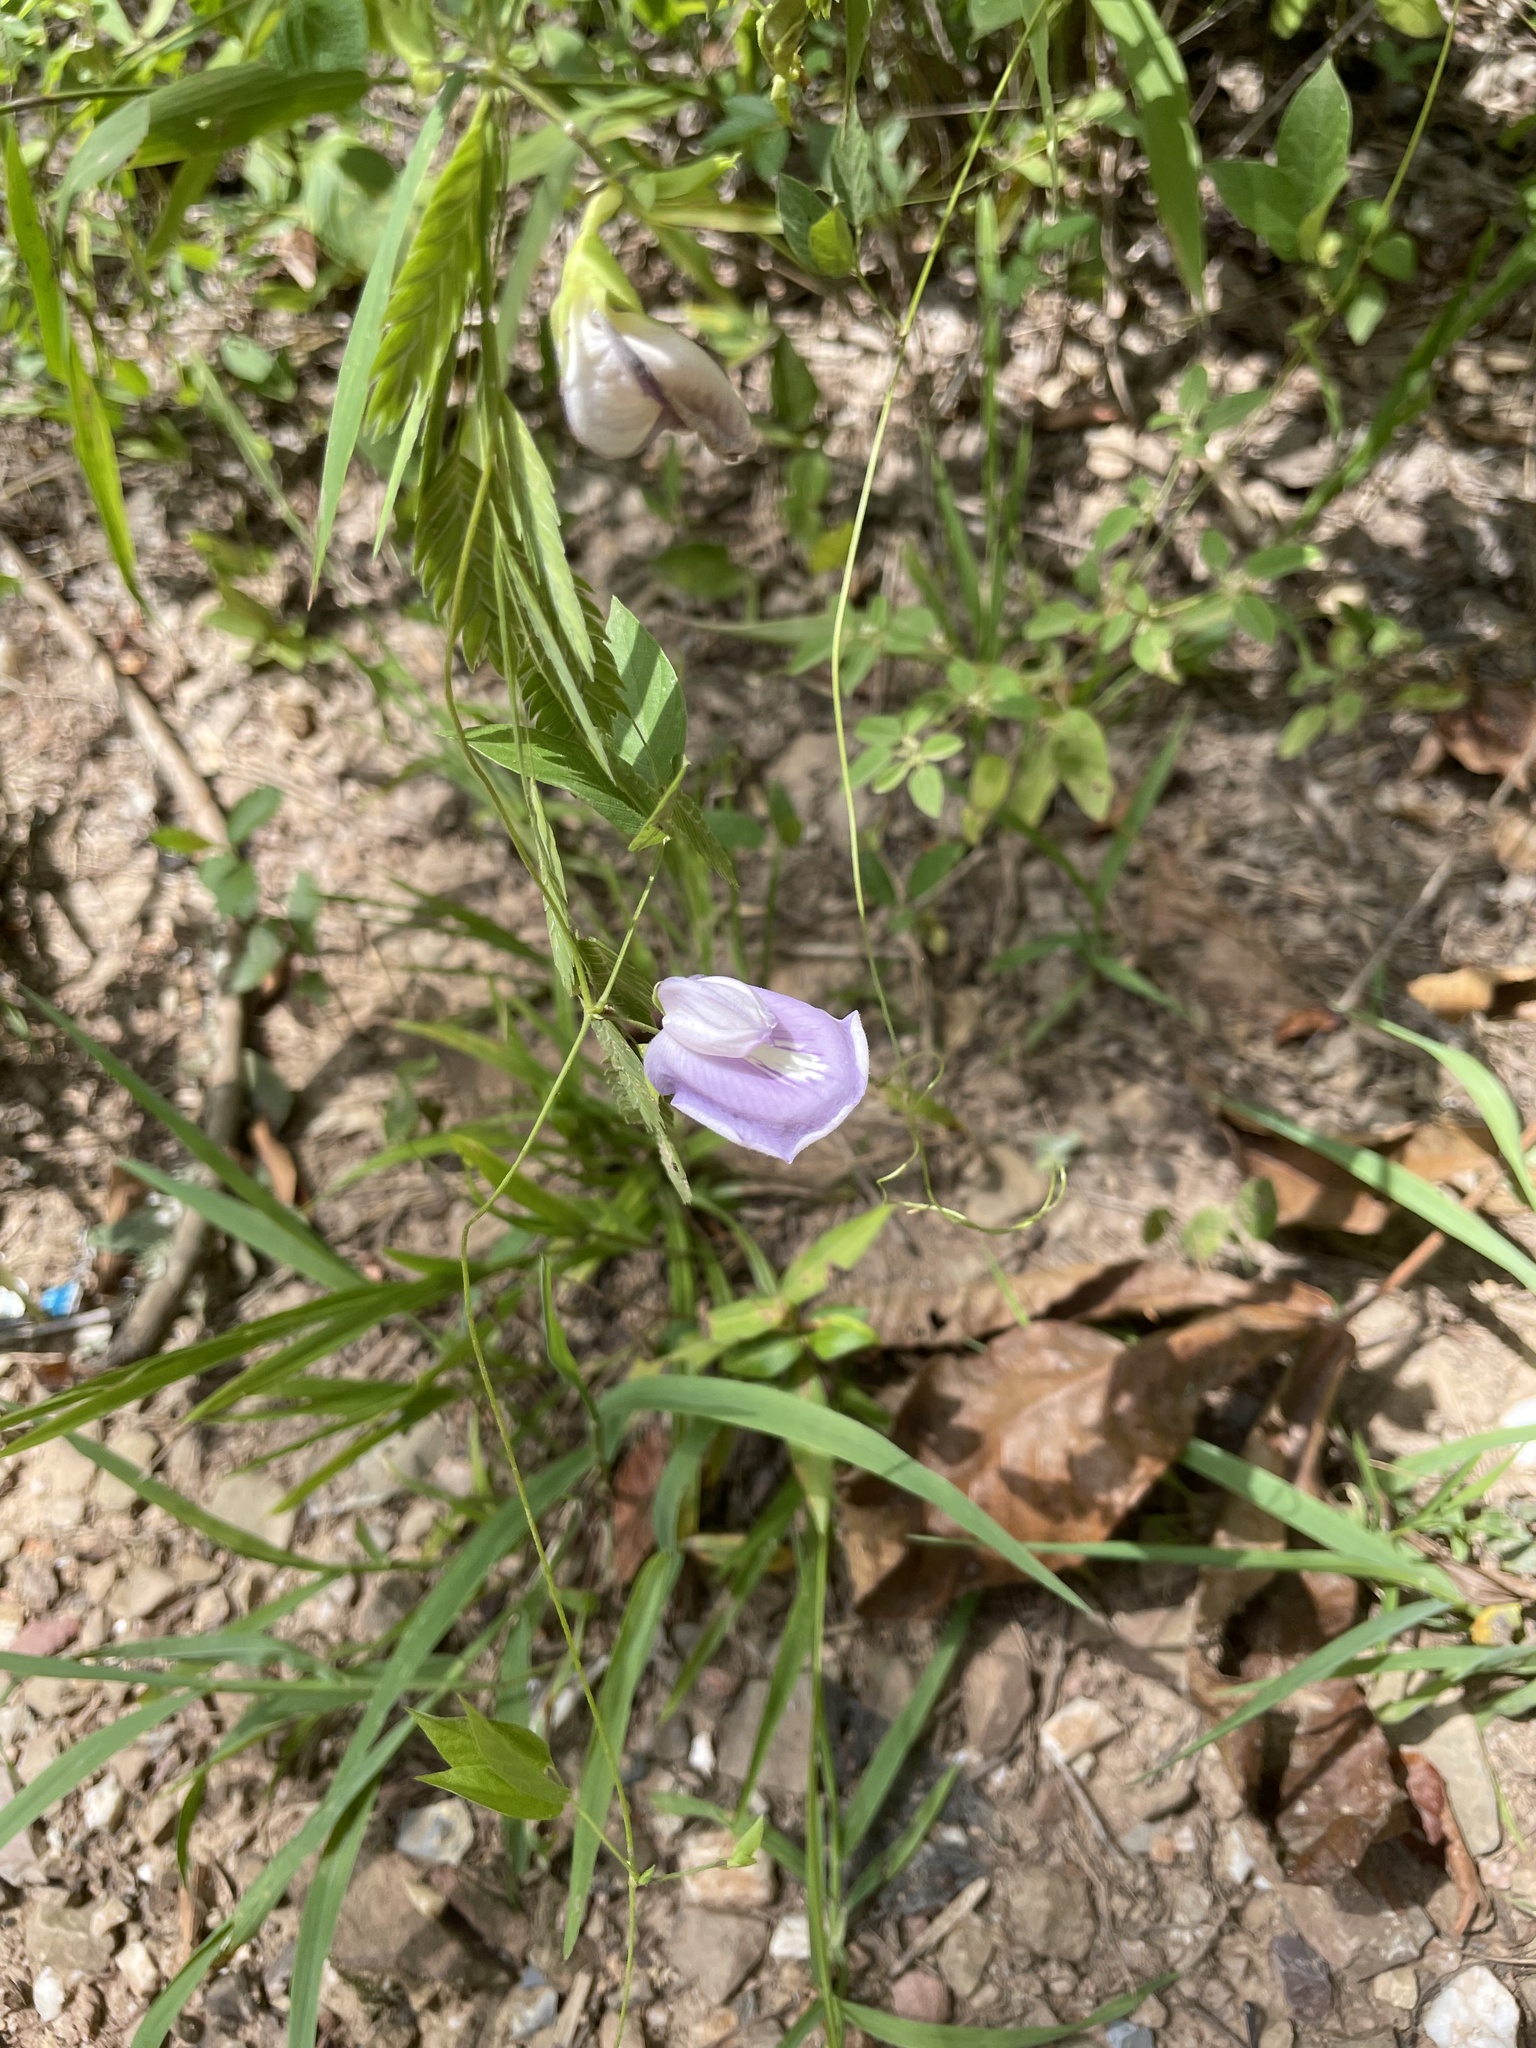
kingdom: Plantae
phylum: Tracheophyta
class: Magnoliopsida
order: Fabales
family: Fabaceae
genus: Centrosema
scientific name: Centrosema virginianum
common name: Butterfly-pea
